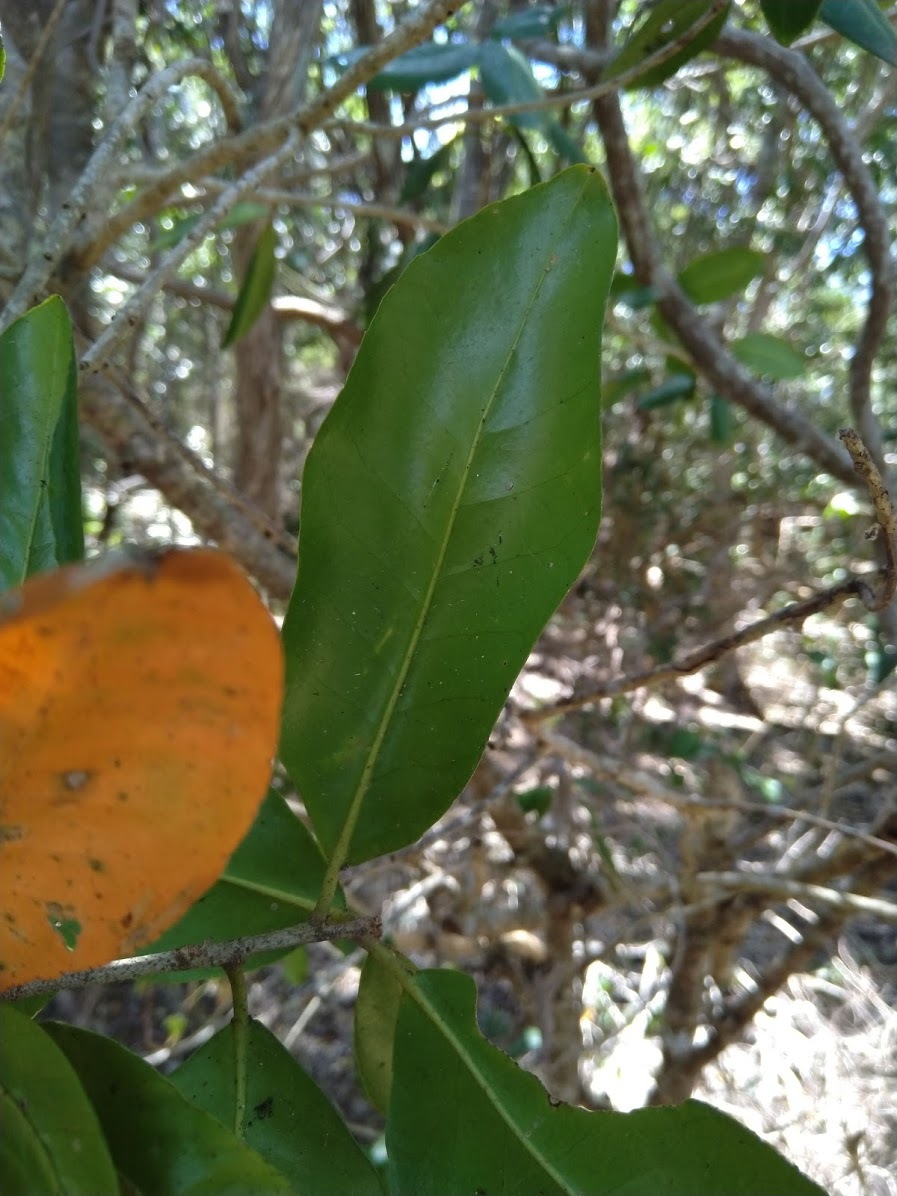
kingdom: Plantae
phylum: Tracheophyta
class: Magnoliopsida
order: Malpighiales
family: Euphorbiaceae
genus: Croton
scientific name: Croton acronychioides
